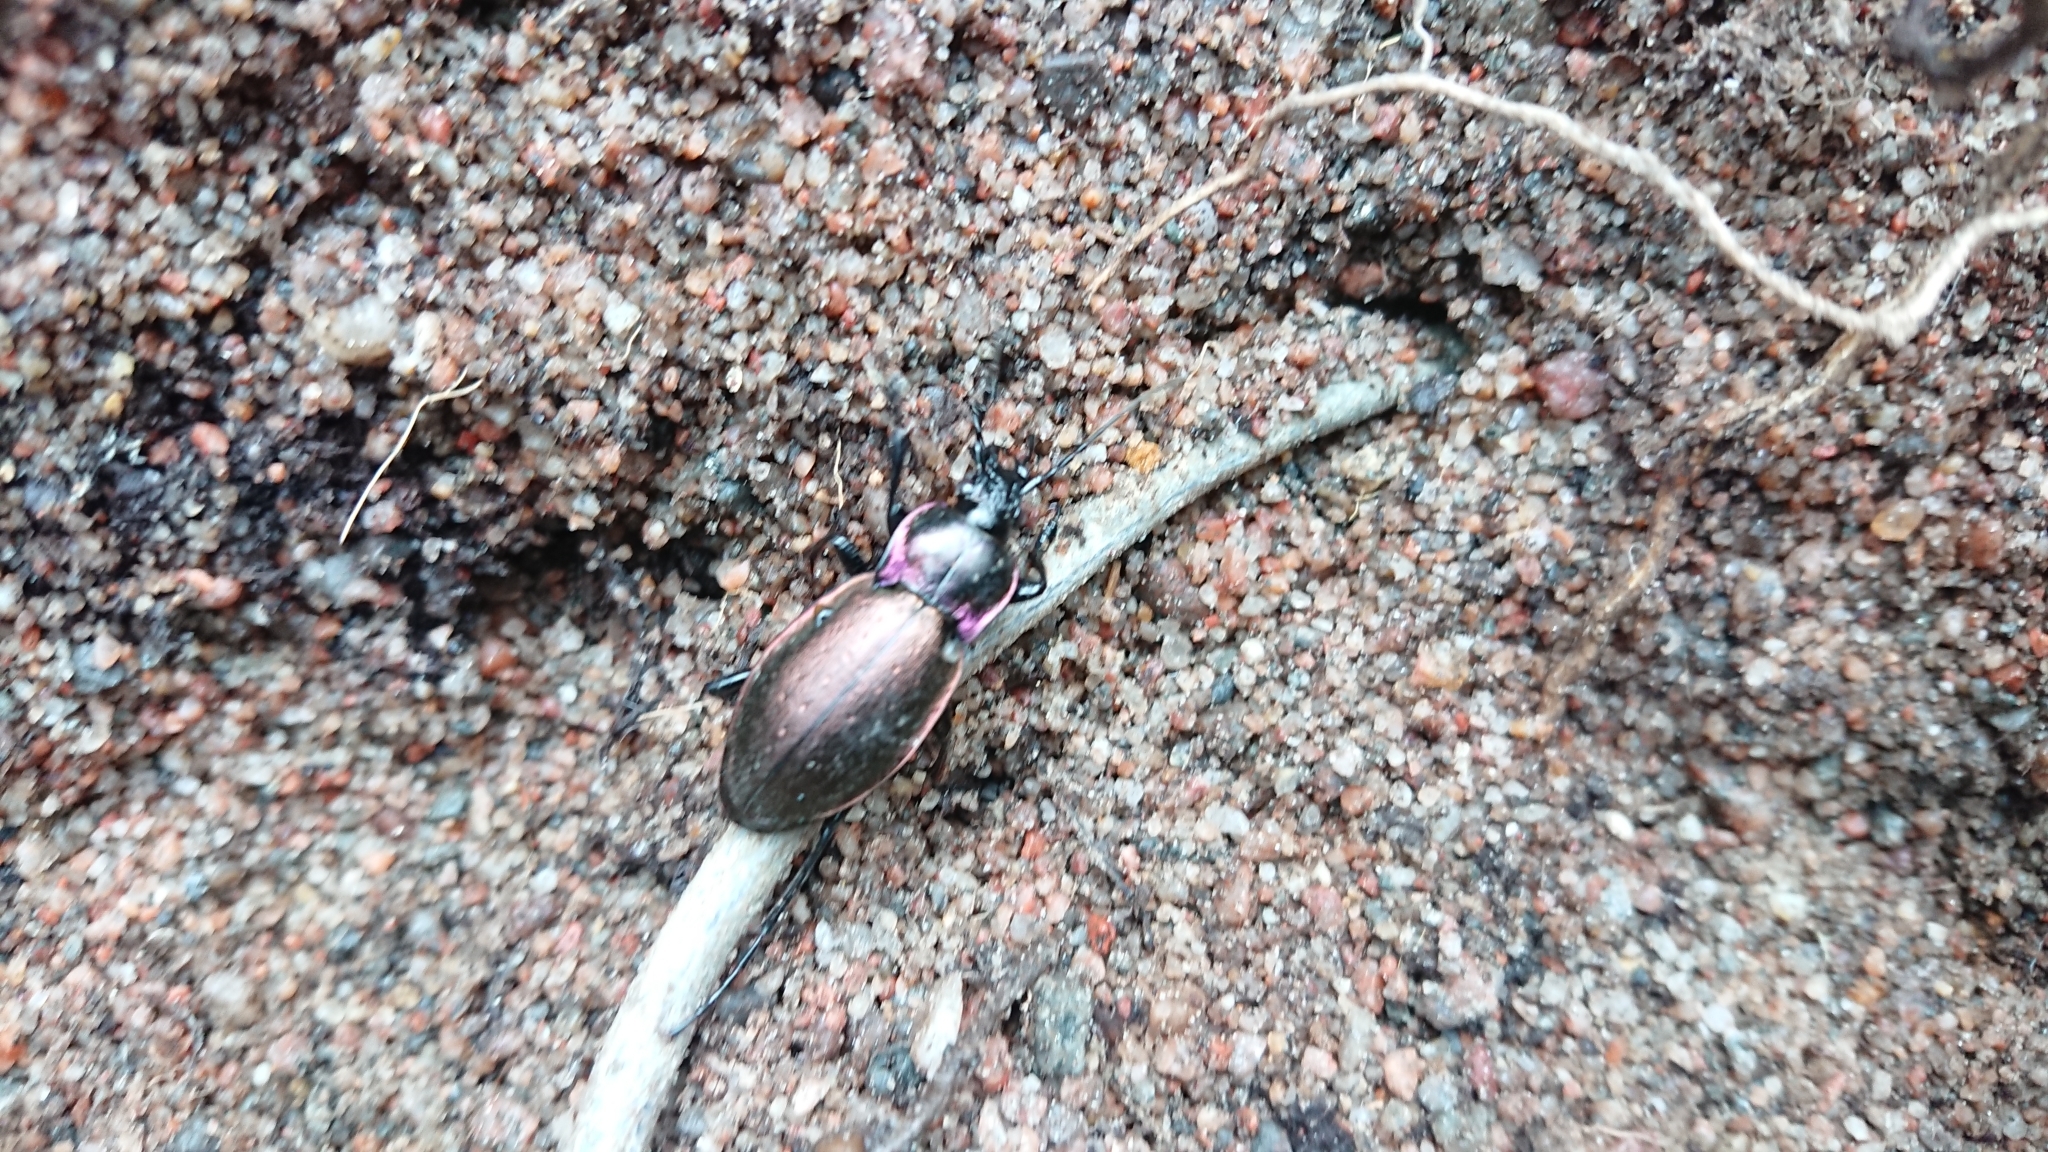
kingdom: Animalia
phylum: Arthropoda
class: Insecta
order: Coleoptera
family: Carabidae
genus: Carabus
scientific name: Carabus nemoralis
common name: European ground beetle
